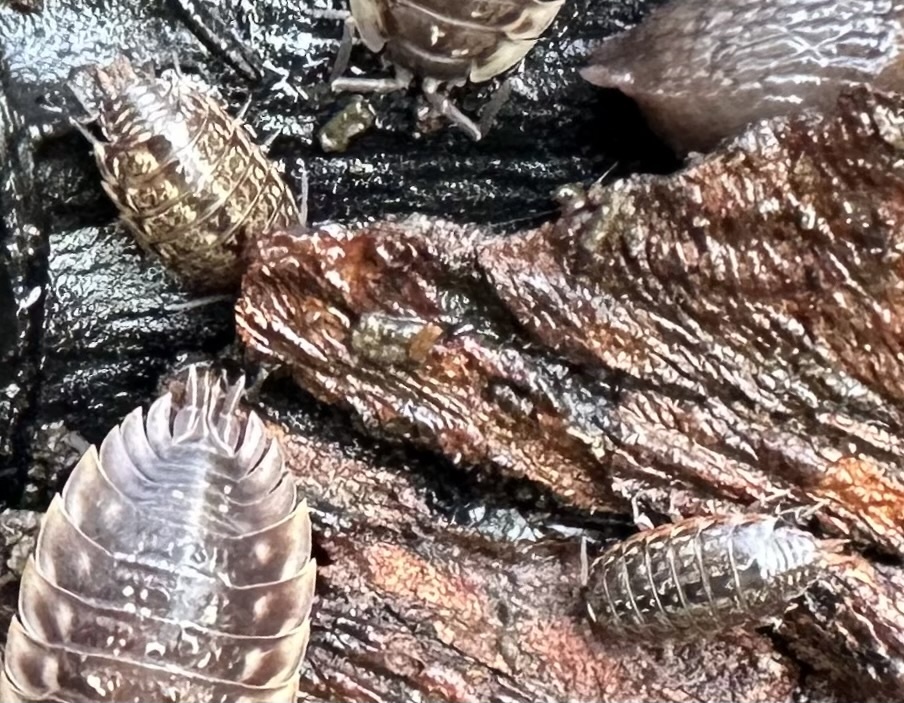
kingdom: Animalia
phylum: Arthropoda
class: Malacostraca
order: Isopoda
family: Oniscidae
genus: Oniscus
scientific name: Oniscus asellus
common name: Common shiny woodlouse
